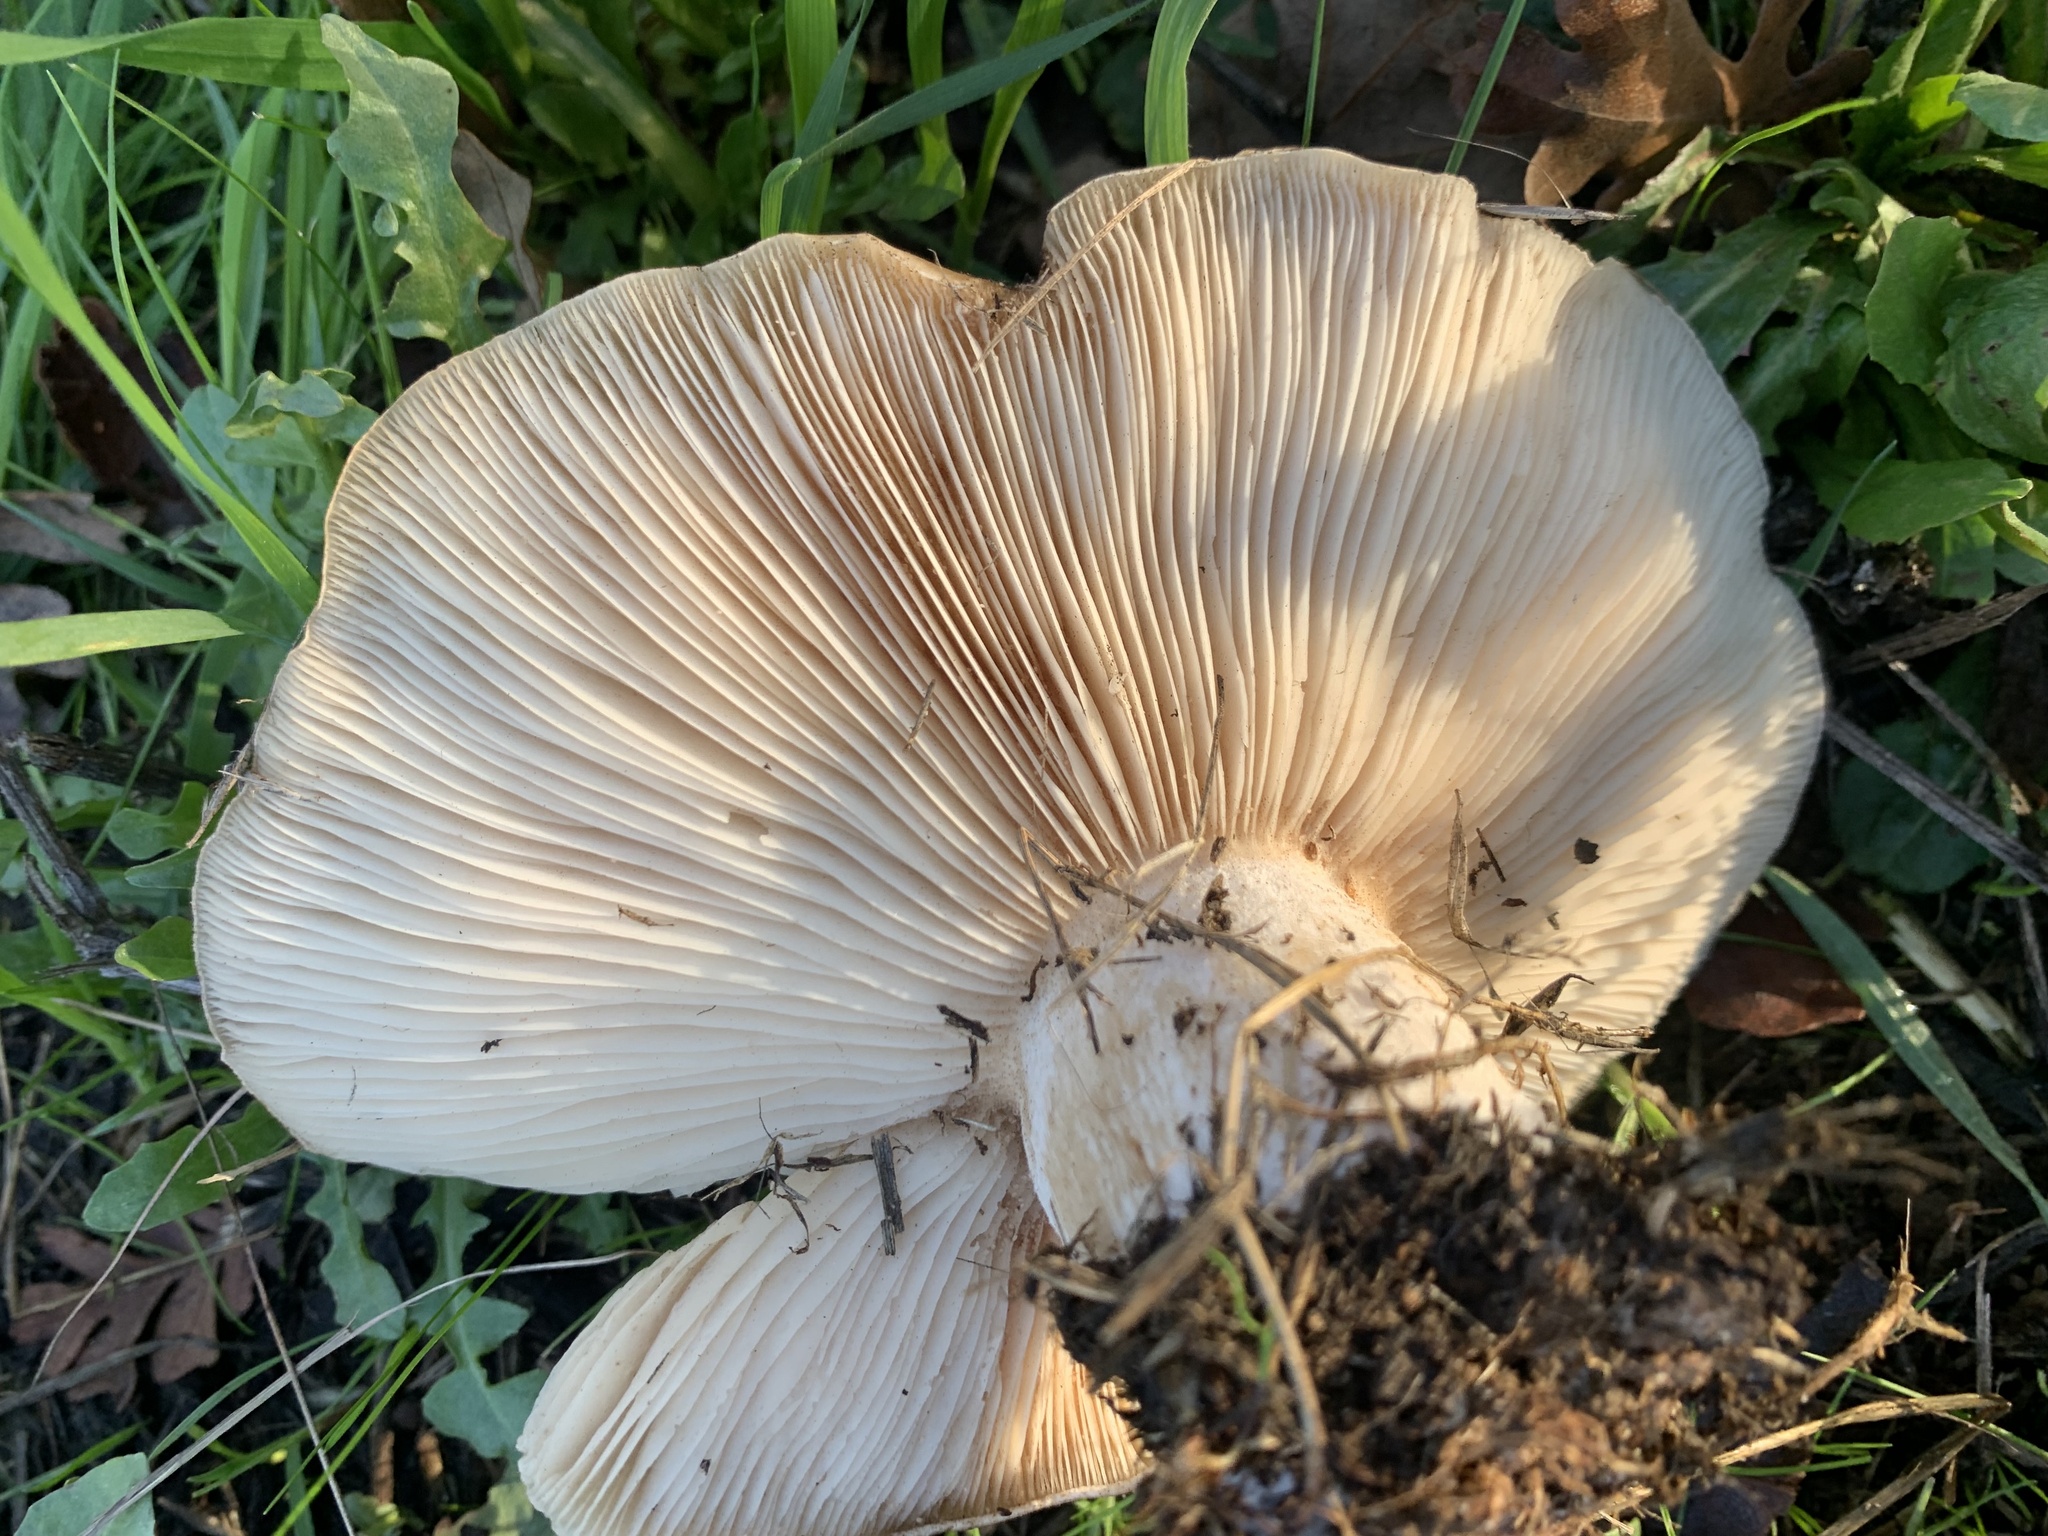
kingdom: Fungi
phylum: Basidiomycota
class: Agaricomycetes
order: Agaricales
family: Tricholomataceae
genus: Collybia
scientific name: Collybia
